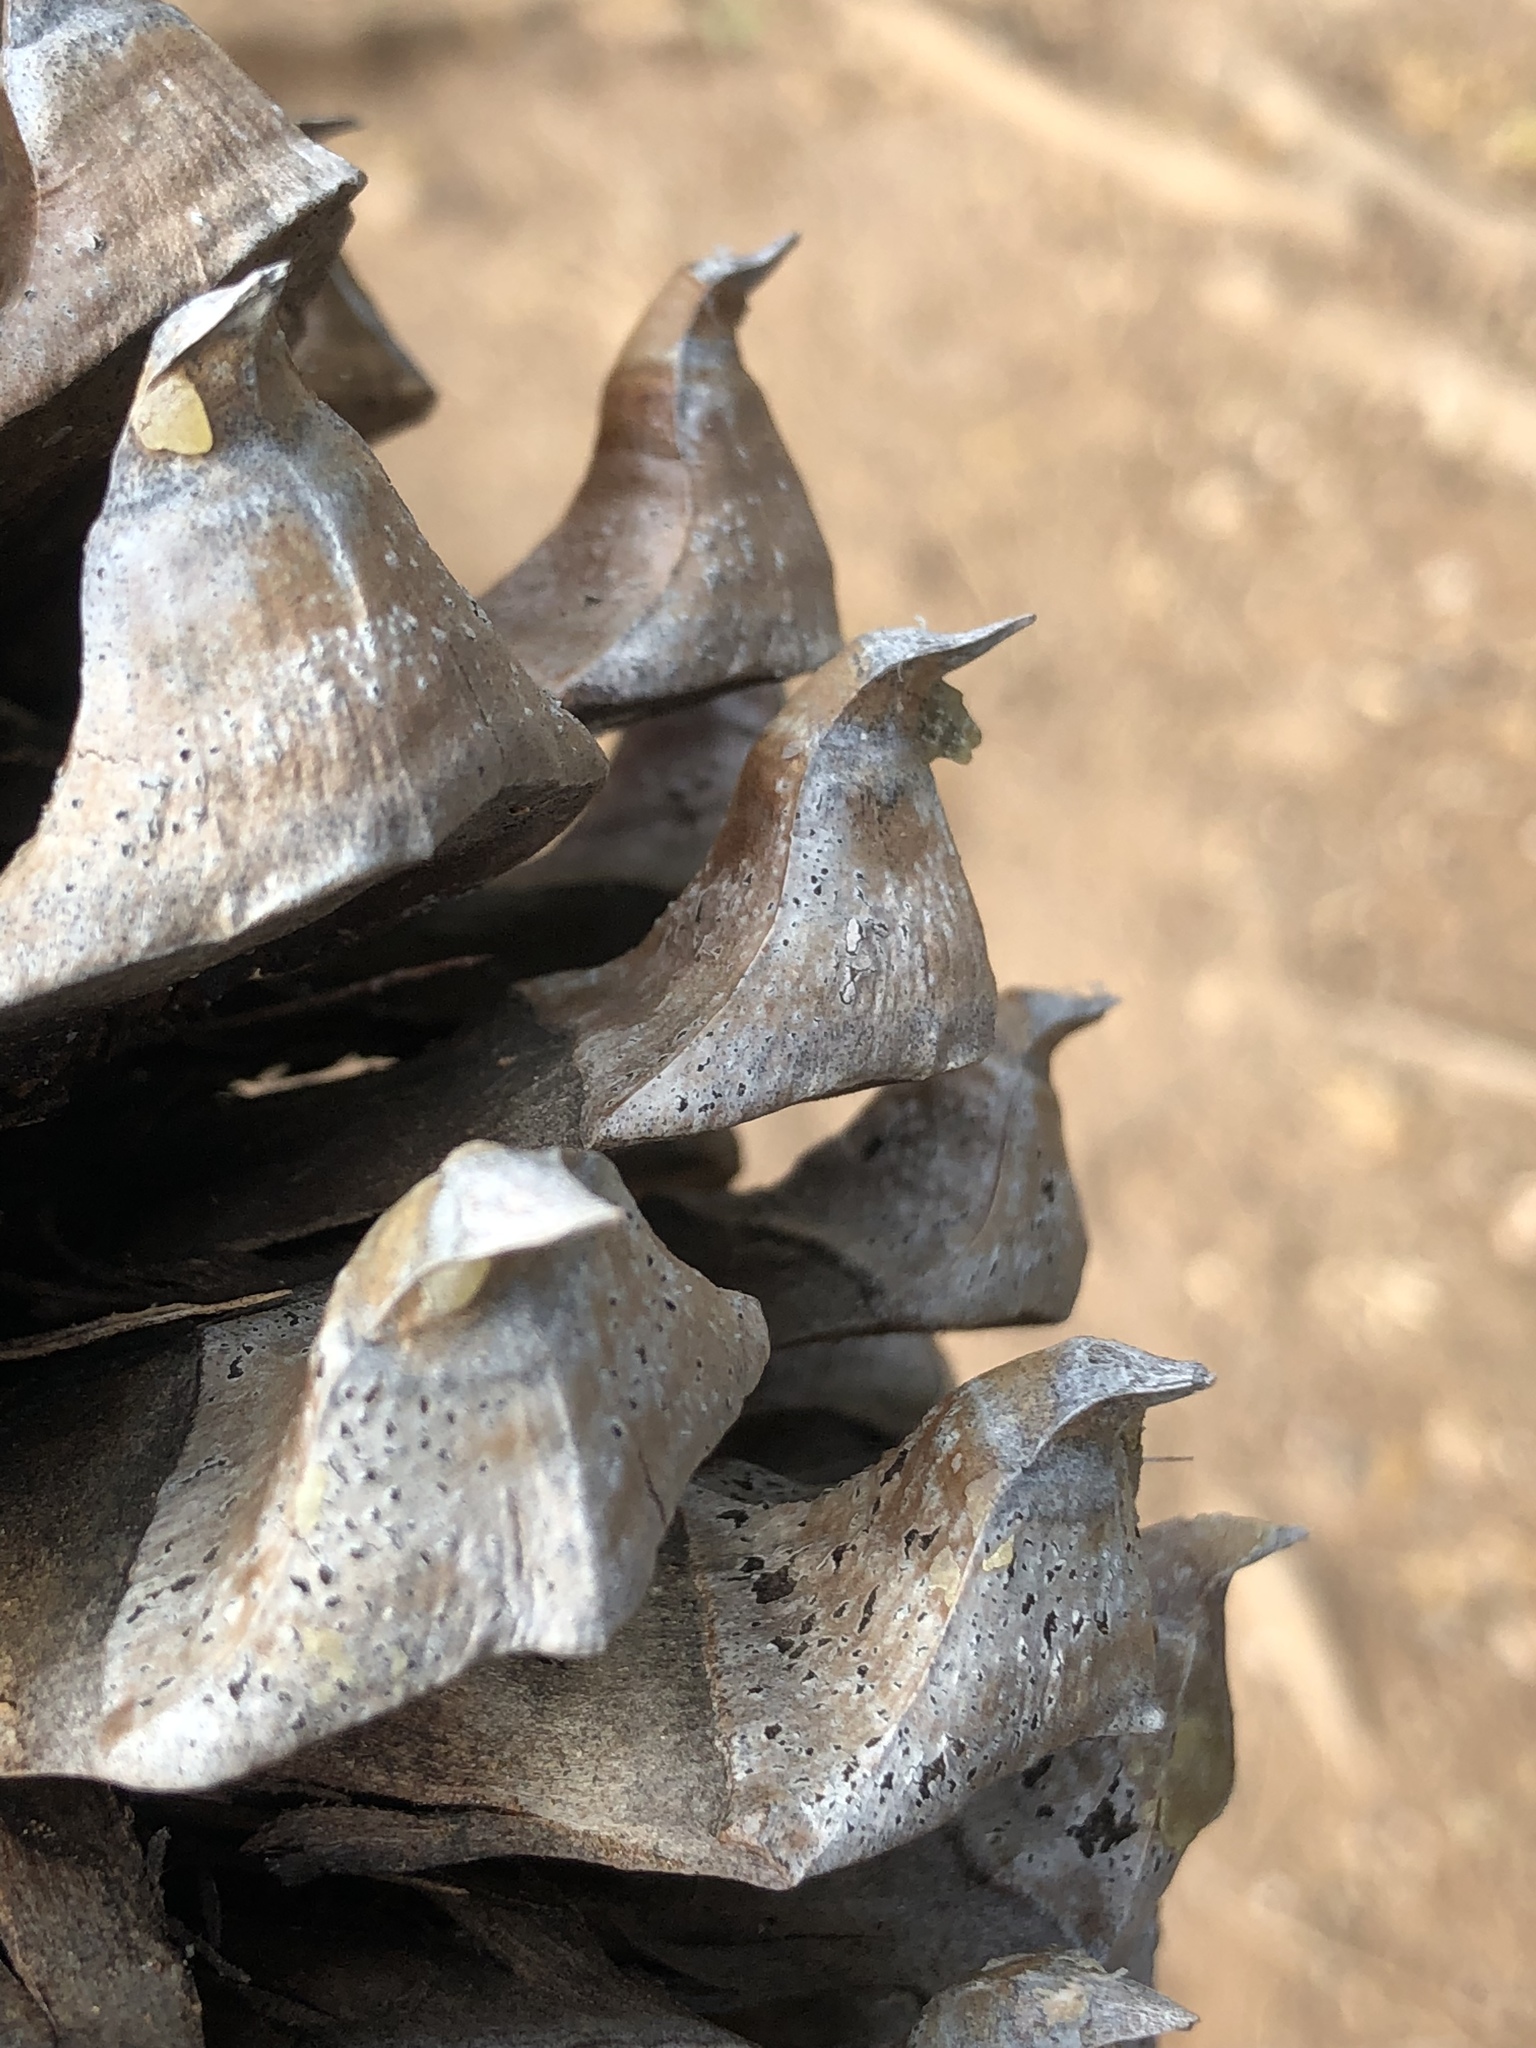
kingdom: Plantae
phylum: Tracheophyta
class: Pinopsida
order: Pinales
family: Pinaceae
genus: Pinus
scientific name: Pinus sabiniana
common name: Bull pine
